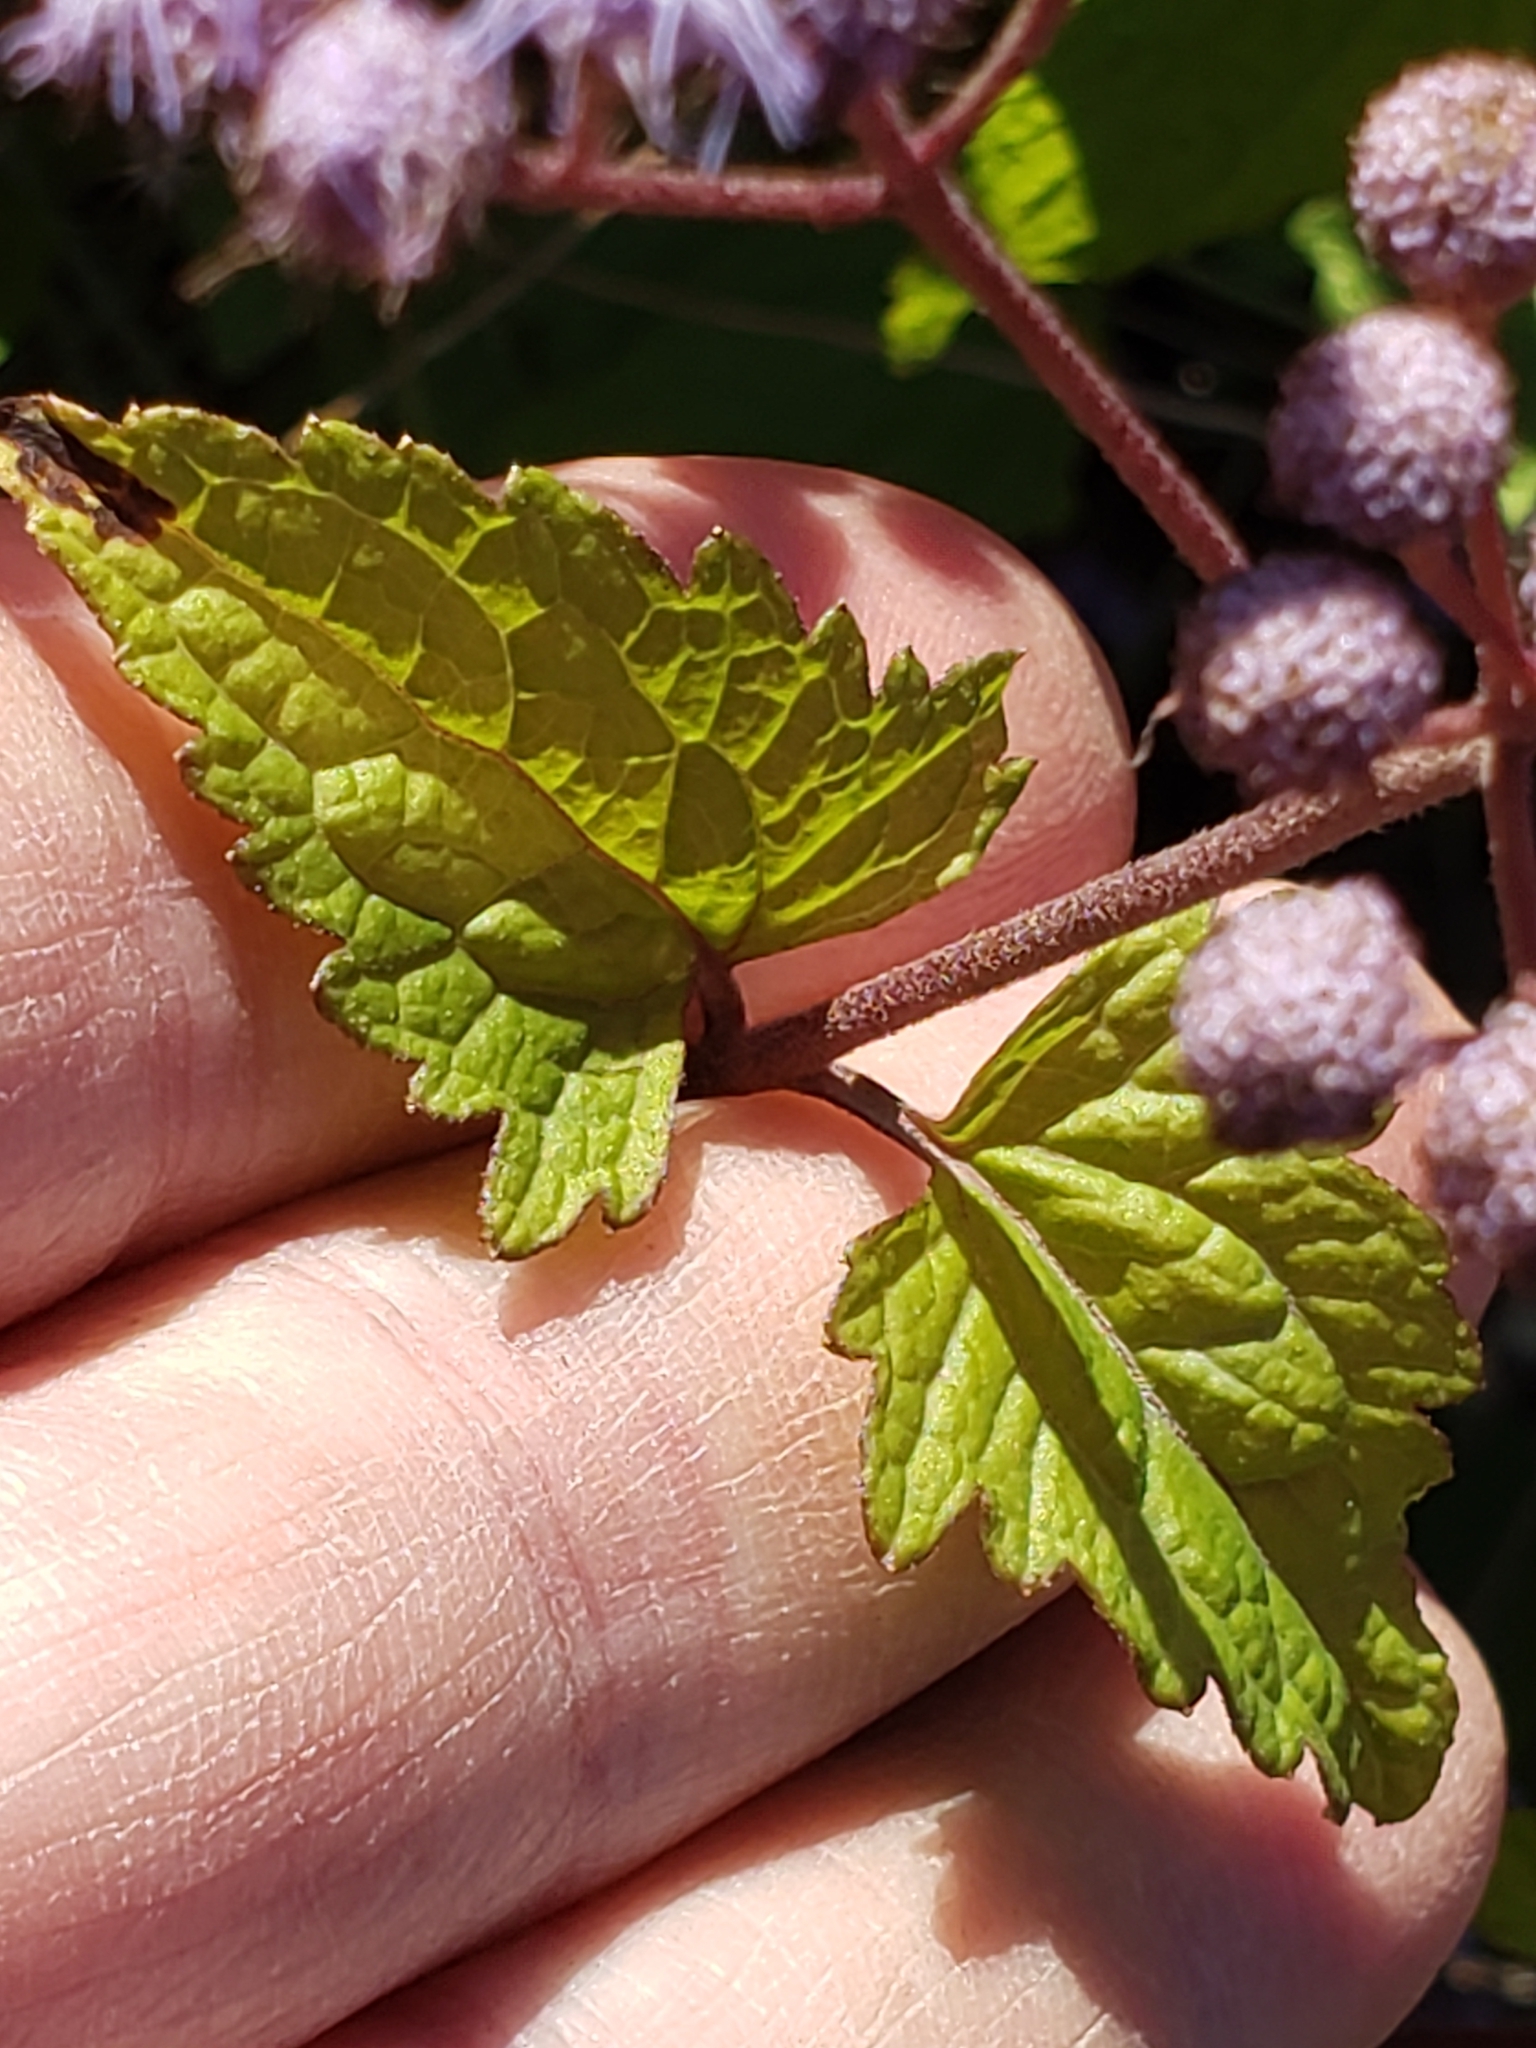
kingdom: Plantae
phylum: Tracheophyta
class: Magnoliopsida
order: Asterales
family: Asteraceae
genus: Conoclinium
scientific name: Conoclinium coelestinum
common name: Blue mistflower
